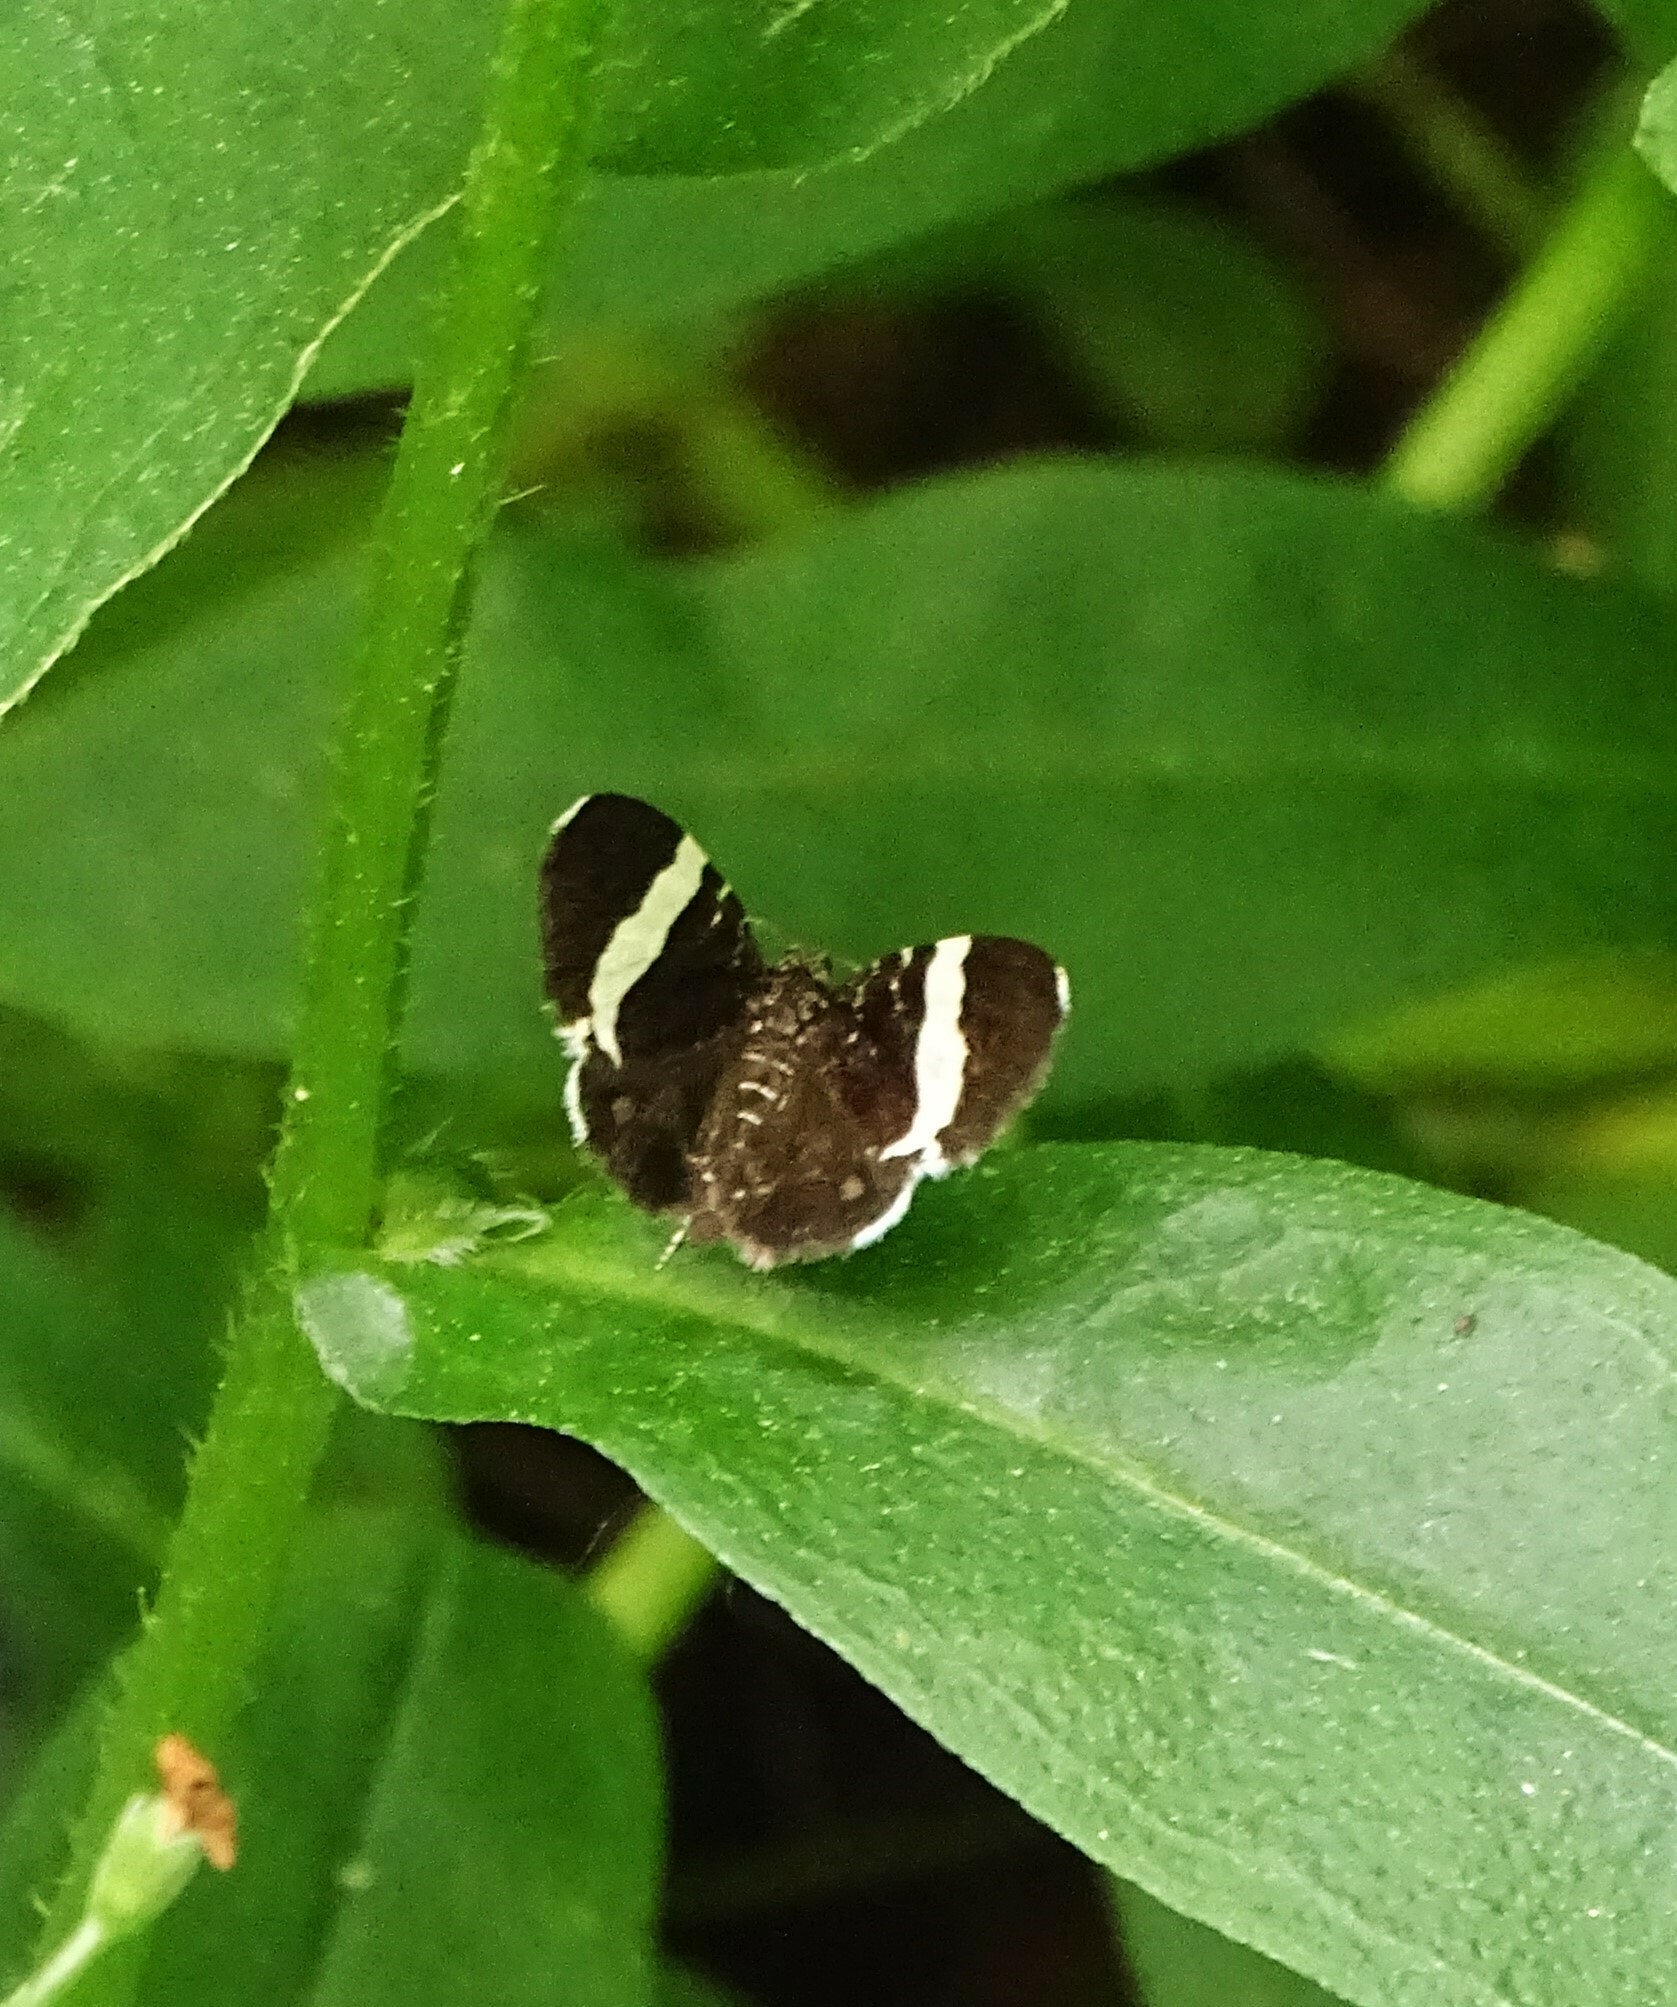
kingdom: Animalia
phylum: Arthropoda
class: Insecta
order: Lepidoptera
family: Geometridae
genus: Trichodezia
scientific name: Trichodezia albovittata
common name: White striped black
